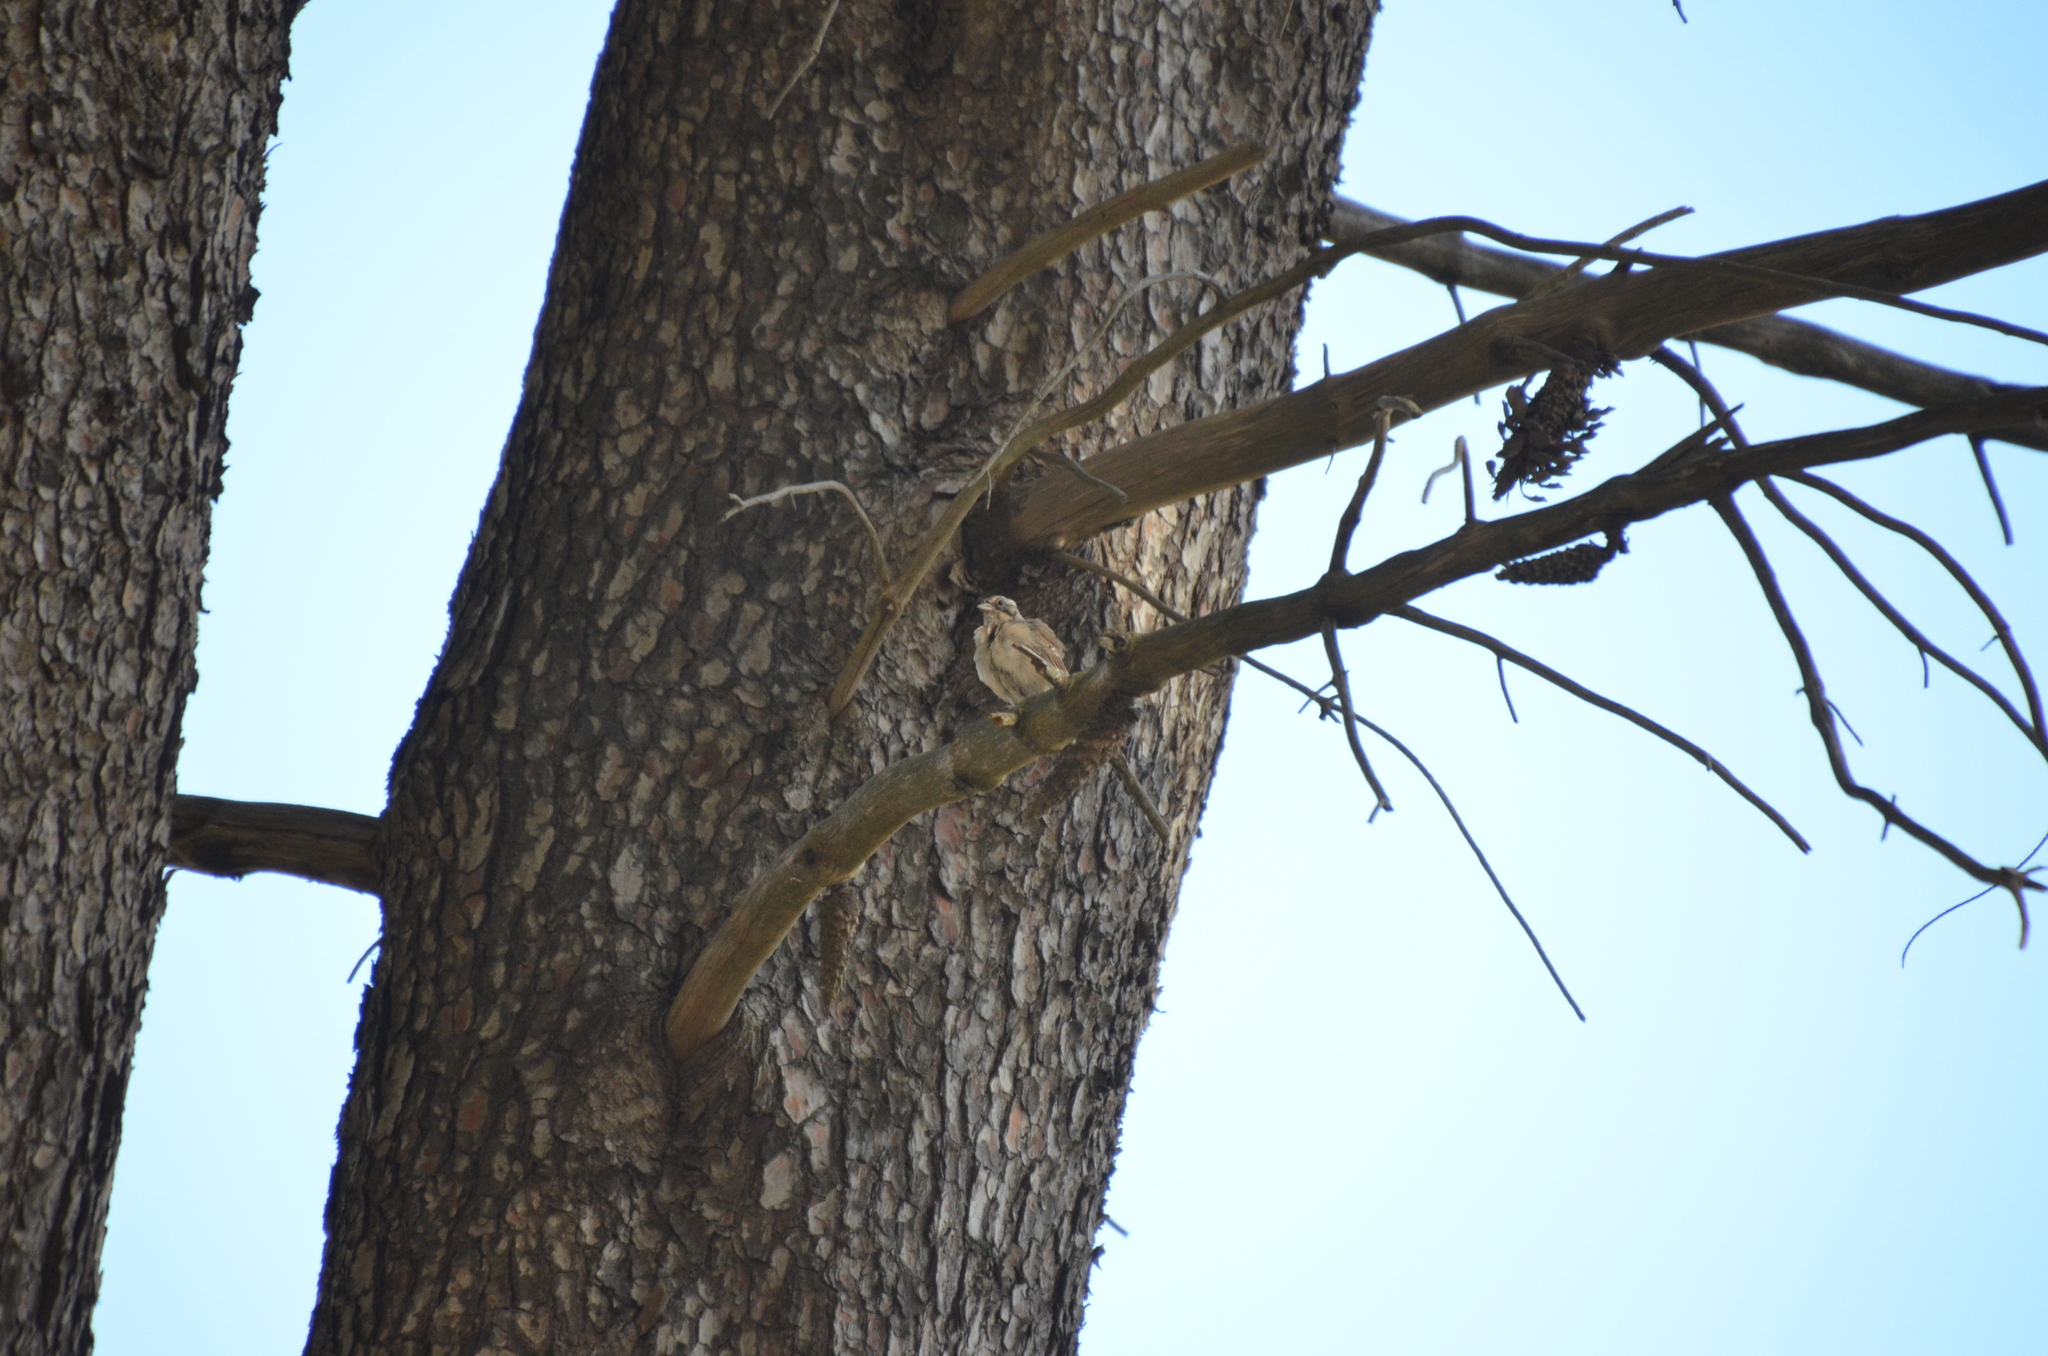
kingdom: Animalia
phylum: Chordata
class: Aves
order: Passeriformes
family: Passerellidae
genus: Zonotrichia
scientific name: Zonotrichia capensis
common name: Rufous-collared sparrow
